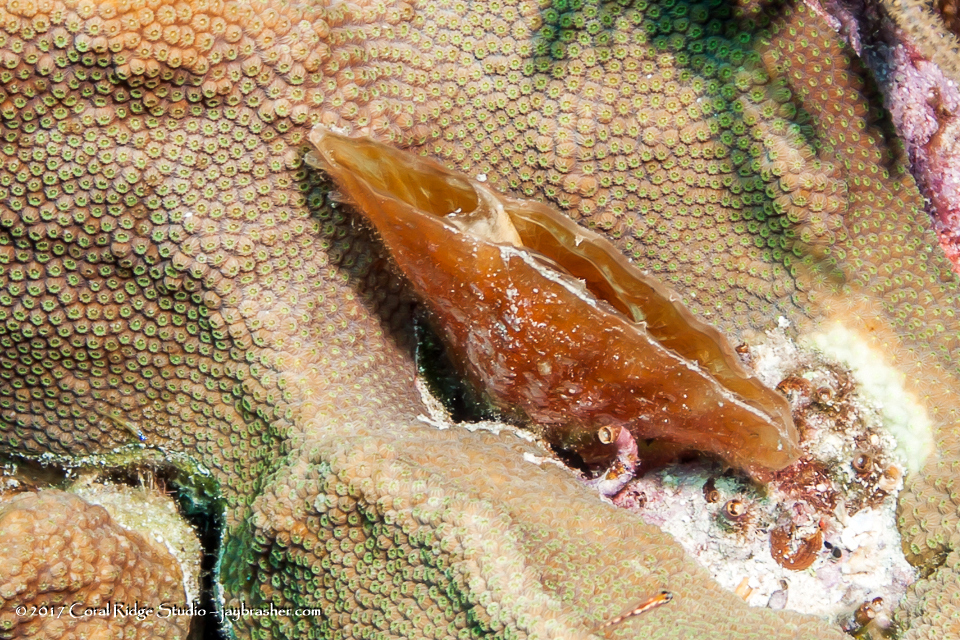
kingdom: Animalia
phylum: Mollusca
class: Bivalvia
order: Ostreida
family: Pinnidae
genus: Pinna
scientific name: Pinna carnea
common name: Amber penshell
